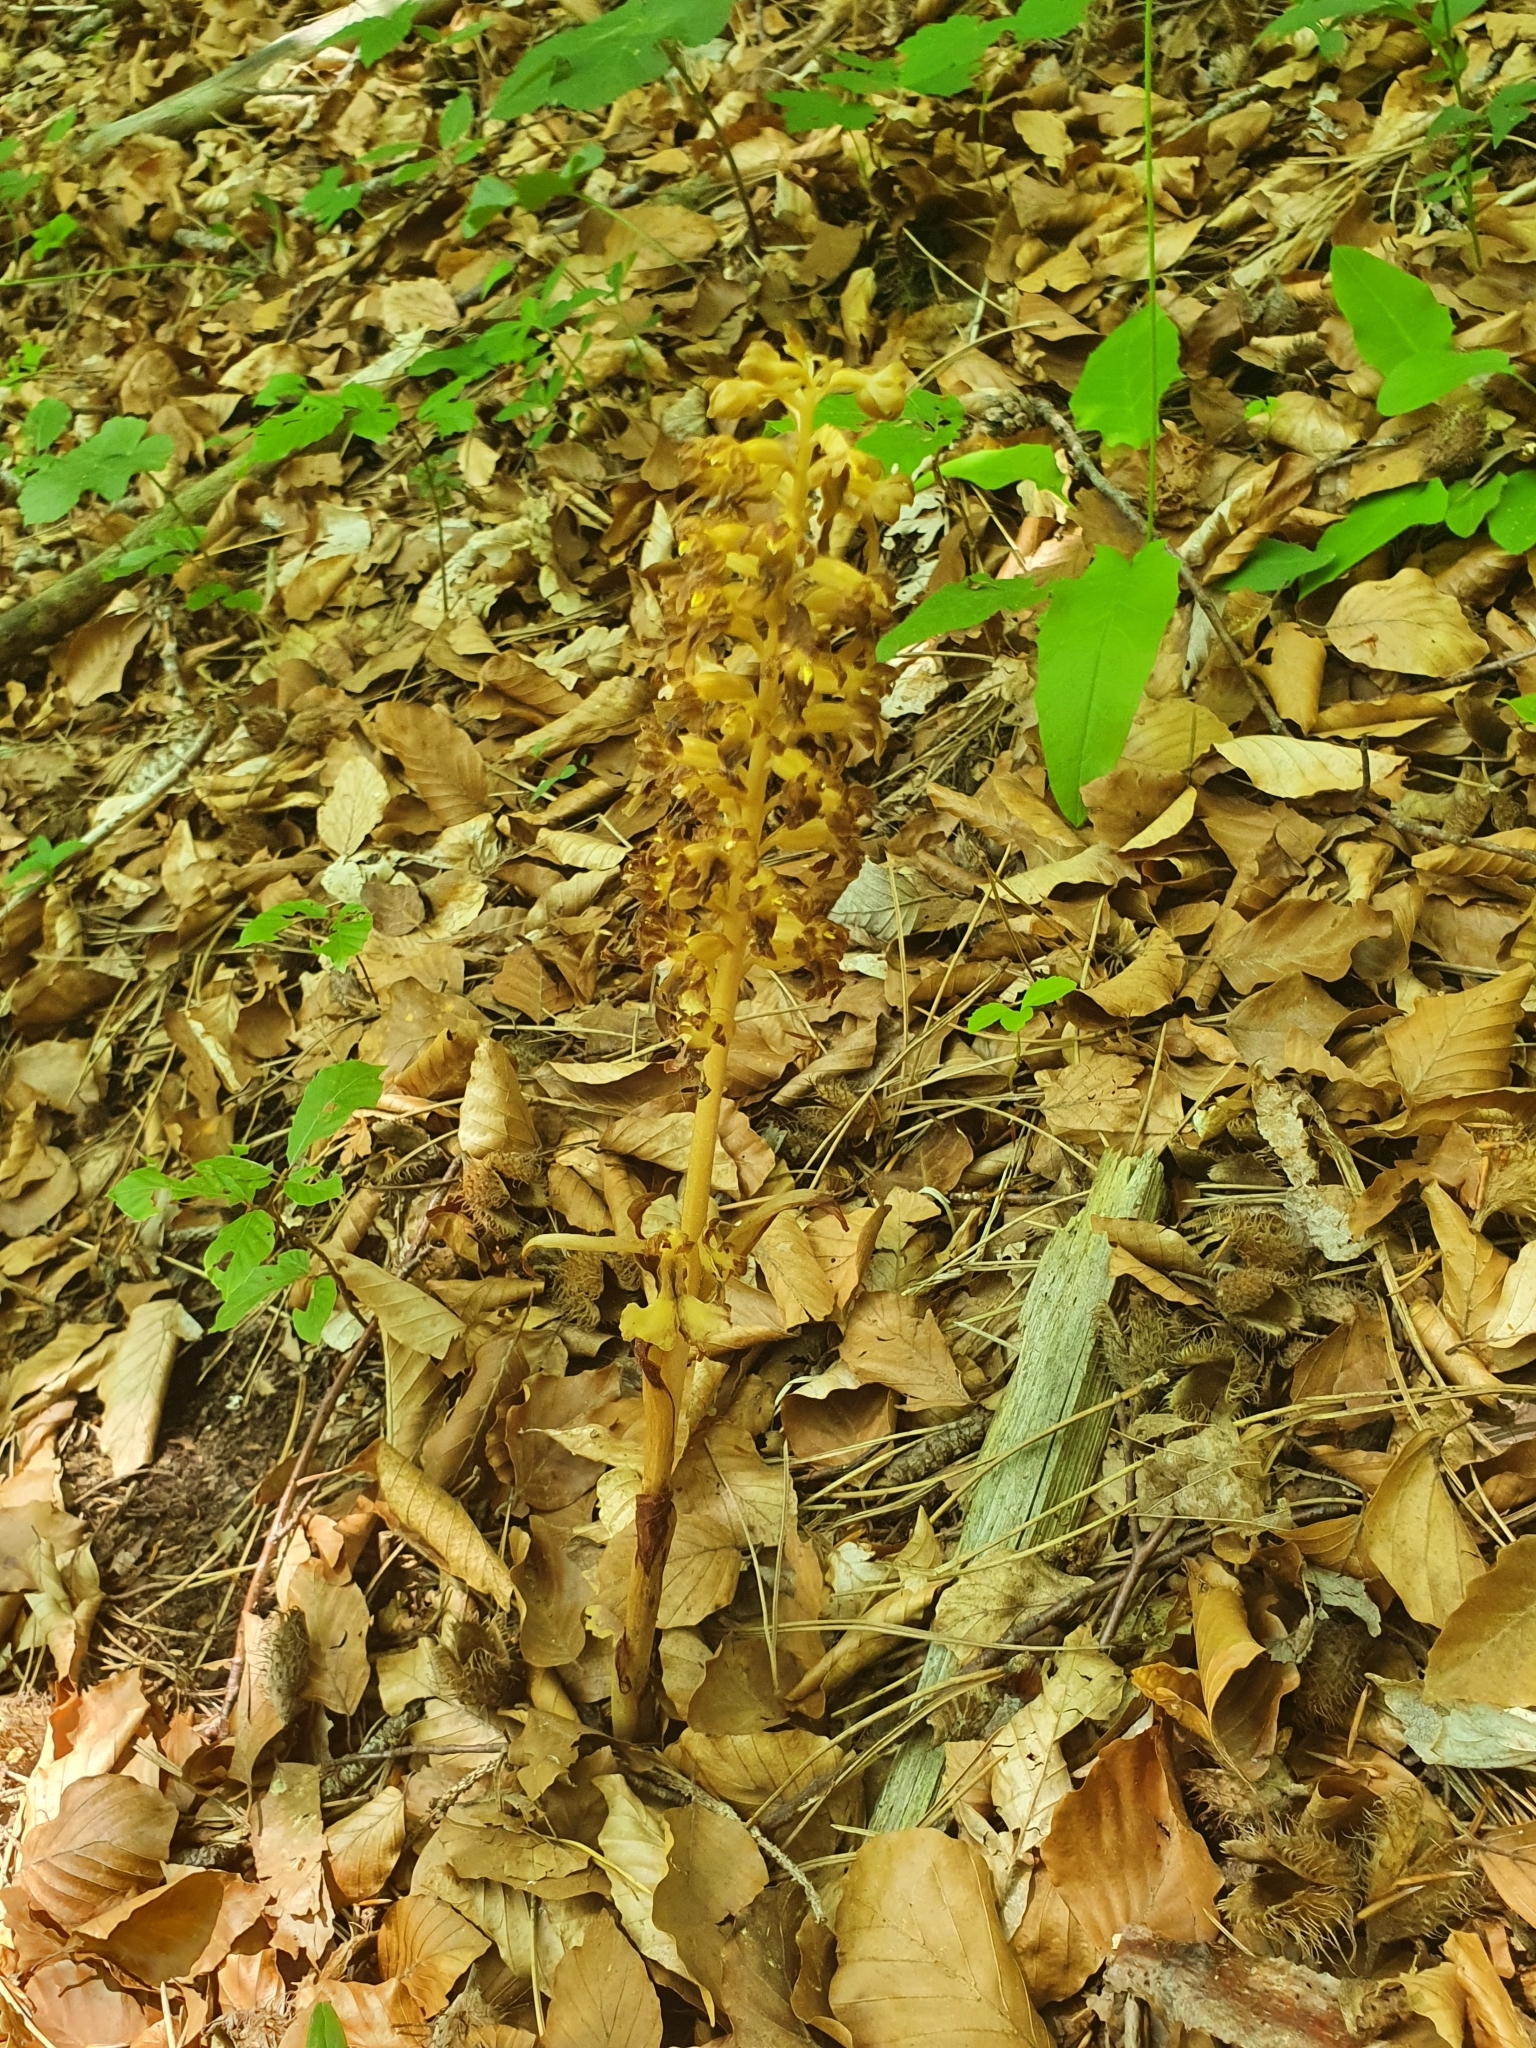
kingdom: Plantae
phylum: Tracheophyta
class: Liliopsida
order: Asparagales
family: Orchidaceae
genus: Neottia
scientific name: Neottia nidus-avis
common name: Bird's-nest orchid
